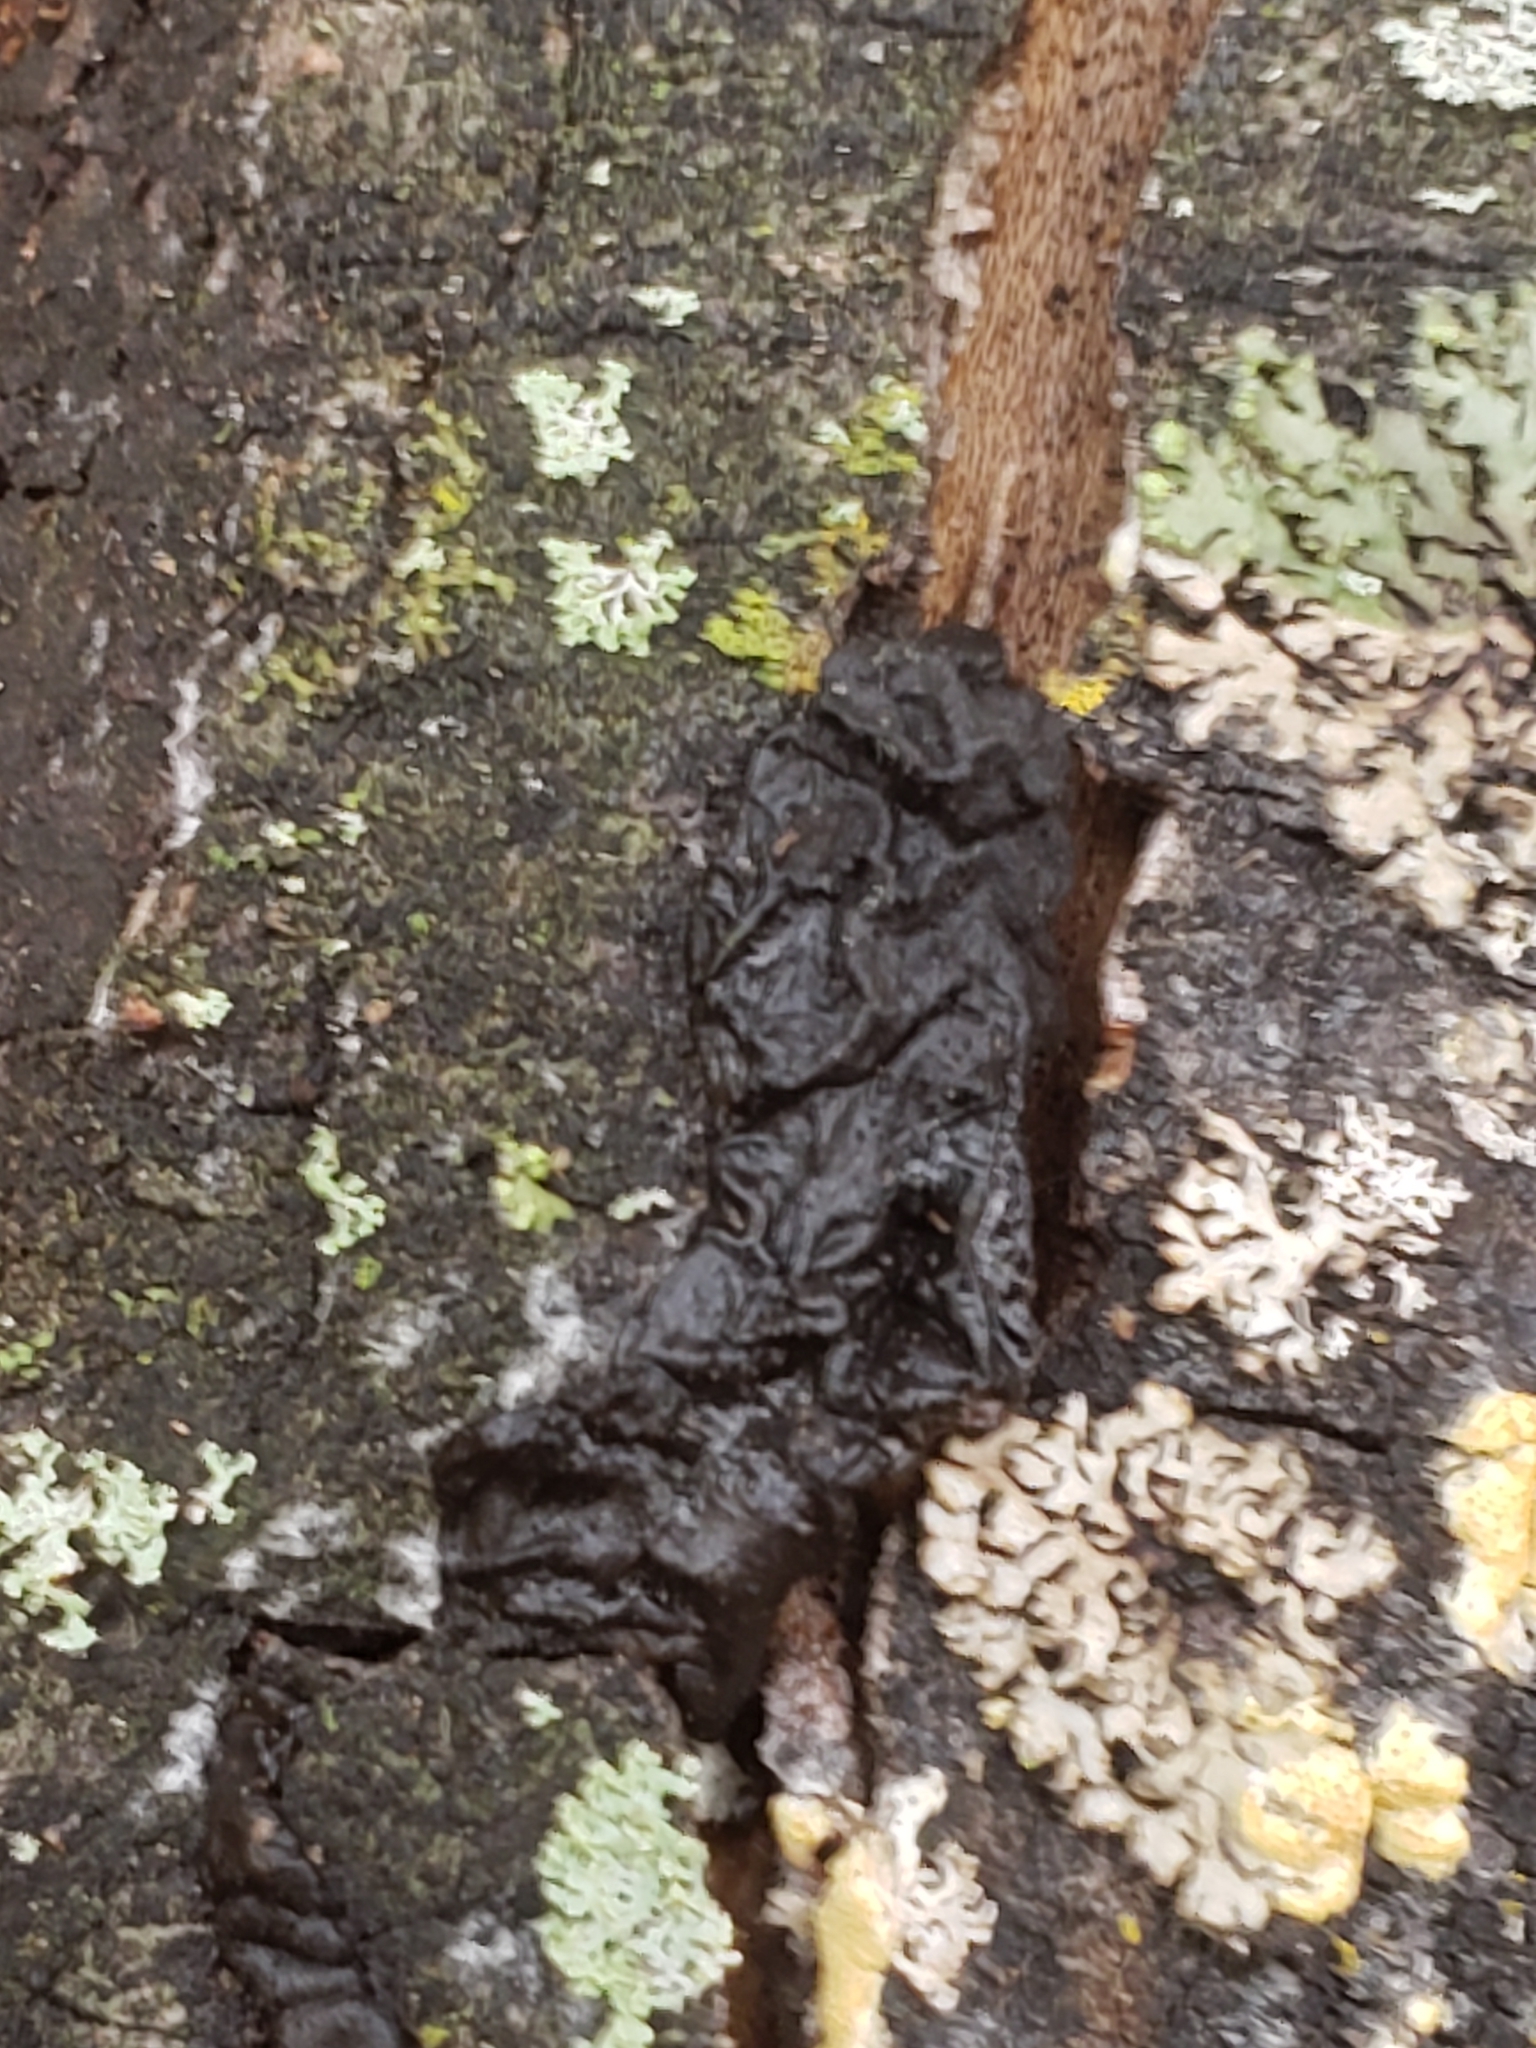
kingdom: Fungi
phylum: Basidiomycota
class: Agaricomycetes
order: Auriculariales
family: Auriculariaceae
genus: Exidia
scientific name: Exidia
